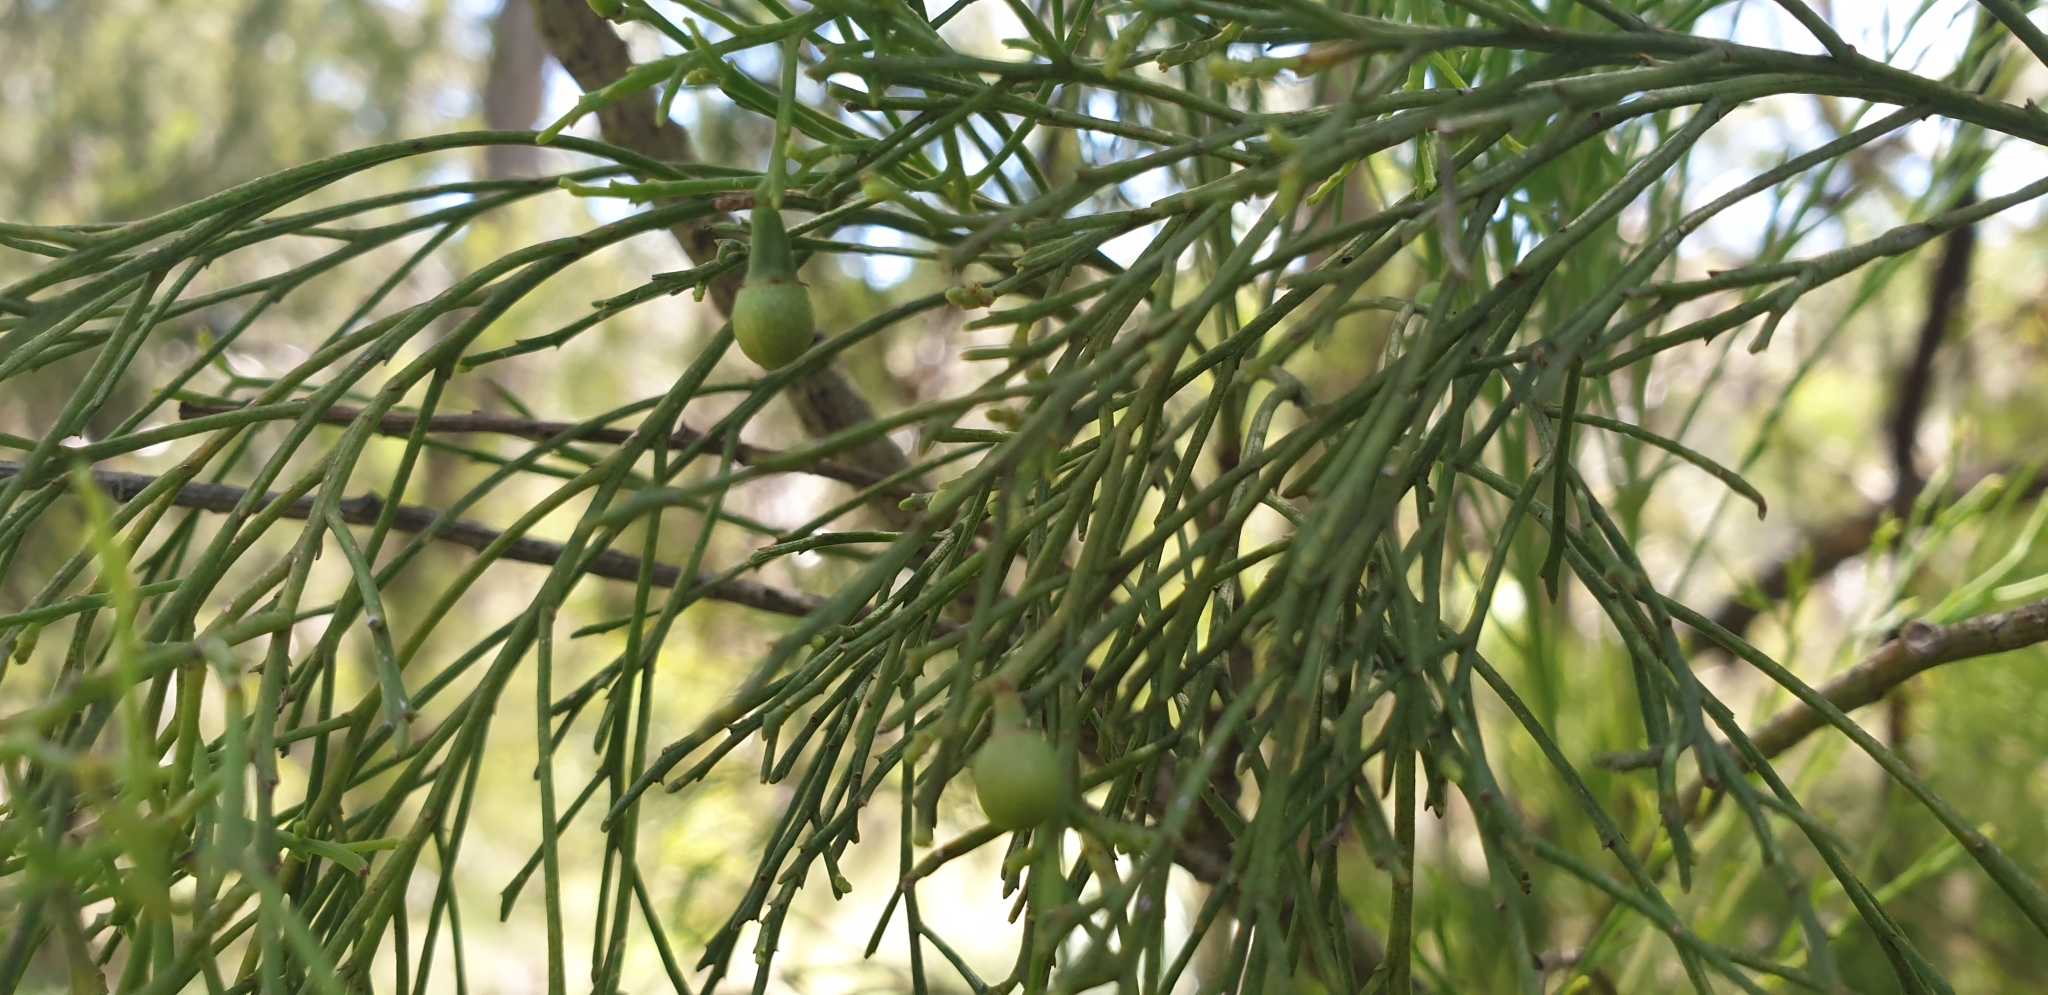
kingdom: Plantae
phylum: Tracheophyta
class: Magnoliopsida
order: Santalales
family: Santalaceae
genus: Exocarpos
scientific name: Exocarpos cupressiformis
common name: Cherry ballart
